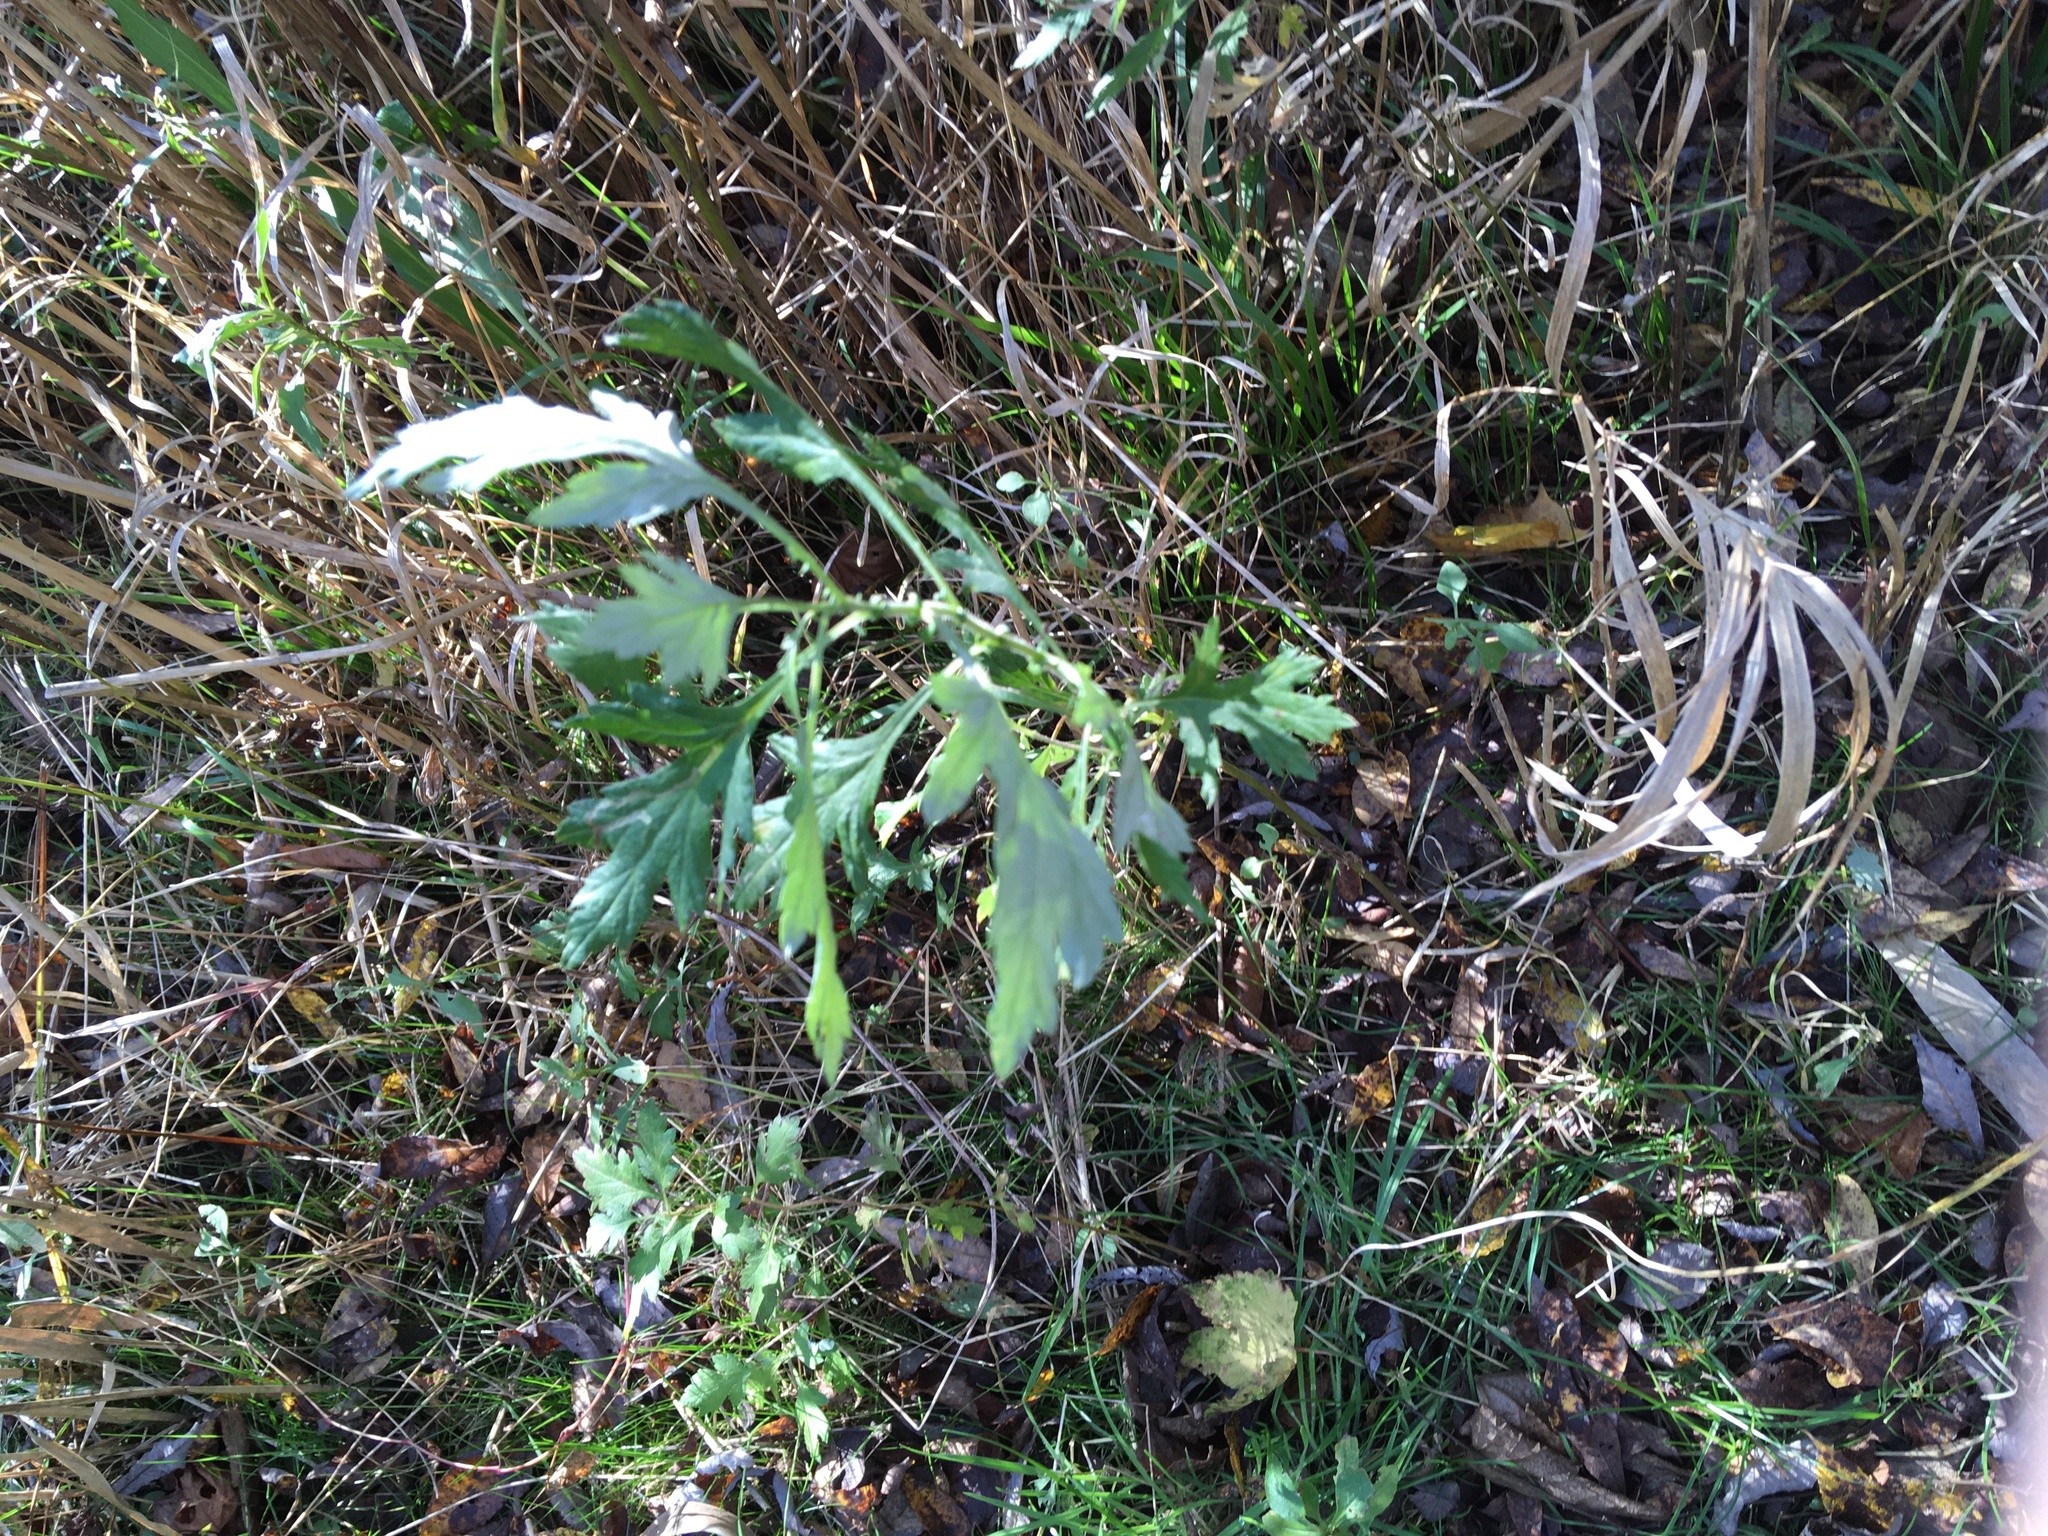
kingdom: Plantae
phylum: Tracheophyta
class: Magnoliopsida
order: Asterales
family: Asteraceae
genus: Artemisia
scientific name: Artemisia vulgaris
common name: Mugwort
